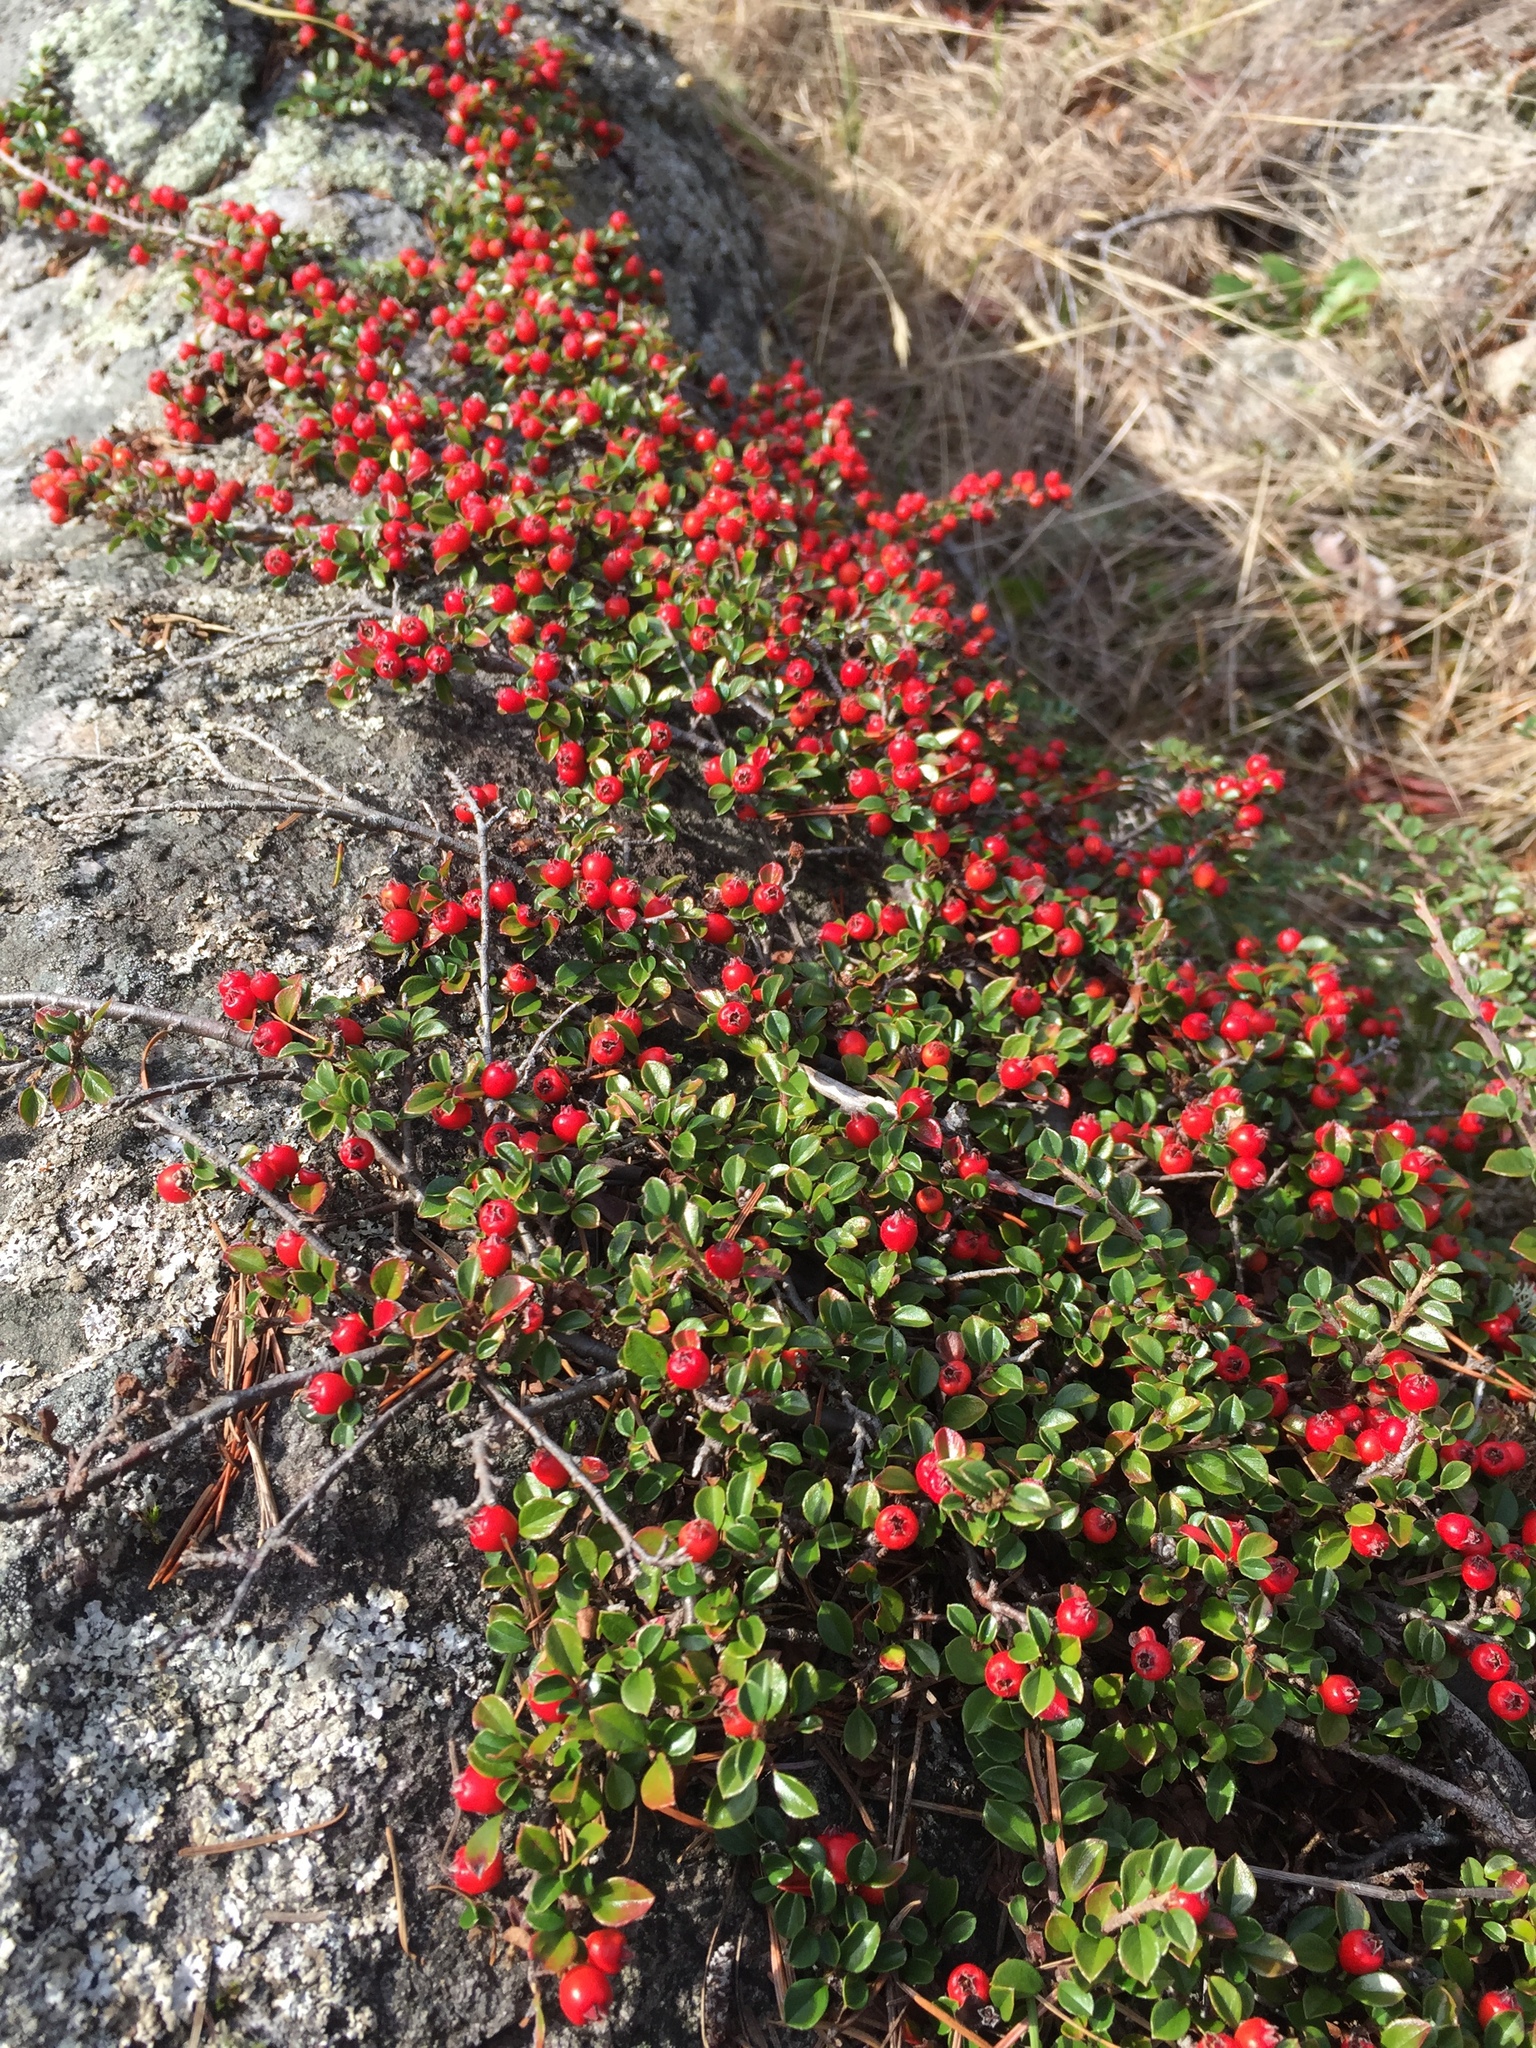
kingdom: Plantae
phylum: Tracheophyta
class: Magnoliopsida
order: Rosales
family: Rosaceae
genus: Cotoneaster
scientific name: Cotoneaster horizontalis
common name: Wall cotoneaster
